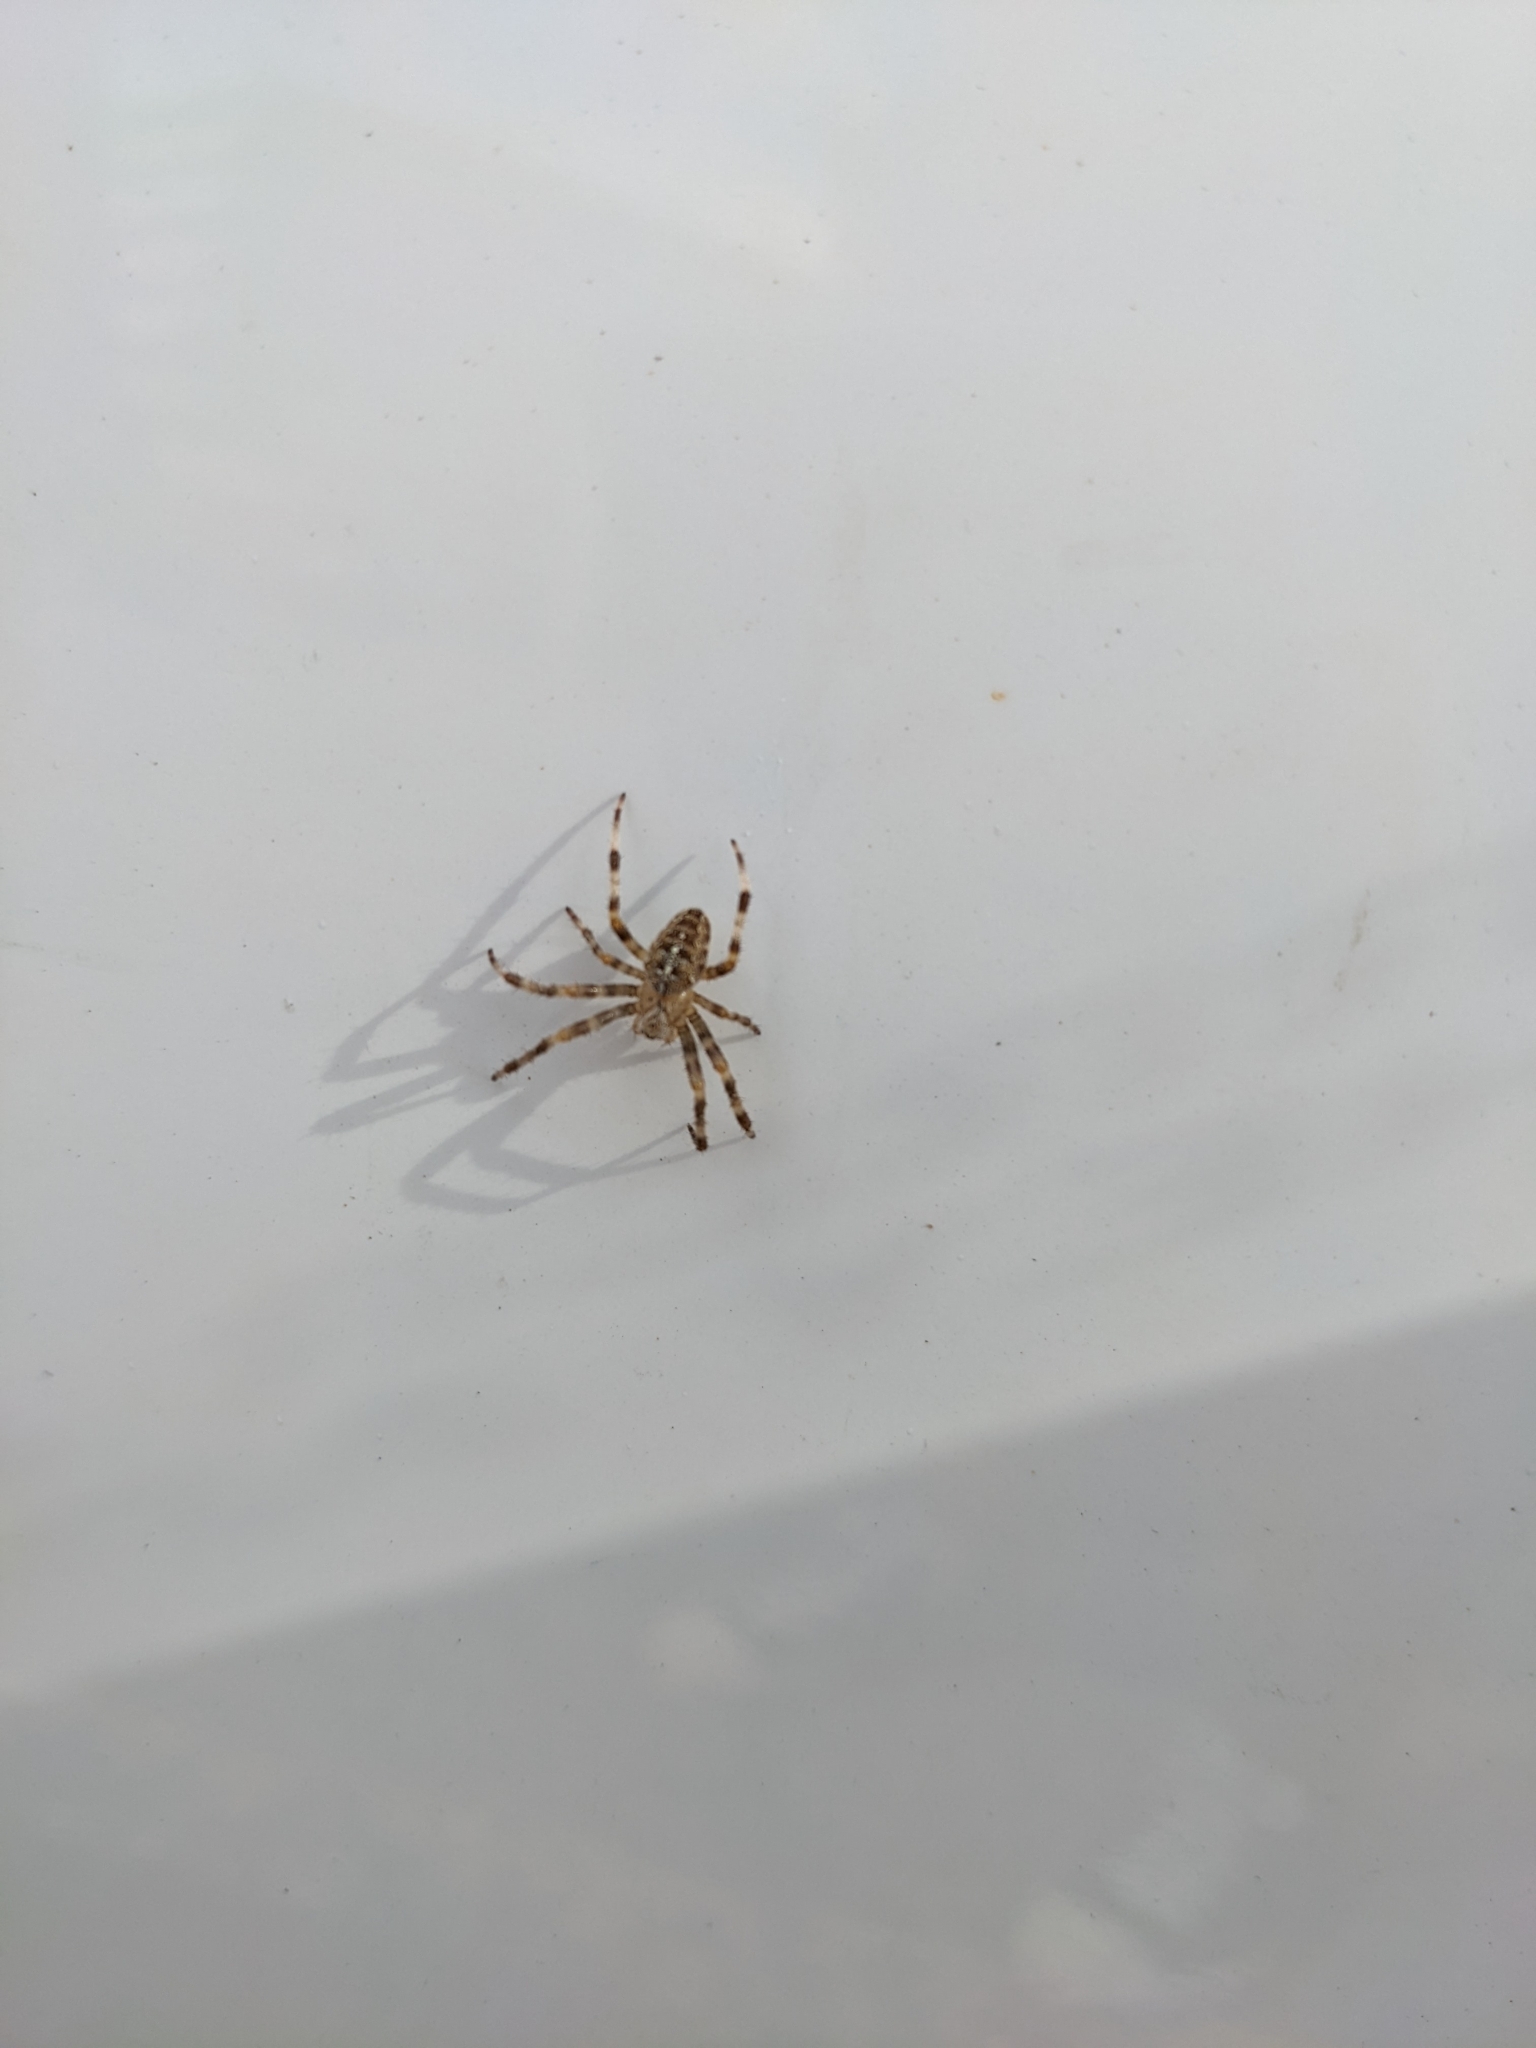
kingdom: Animalia
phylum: Arthropoda
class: Arachnida
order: Araneae
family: Araneidae
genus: Araneus
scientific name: Araneus diadematus
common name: Cross orbweaver
